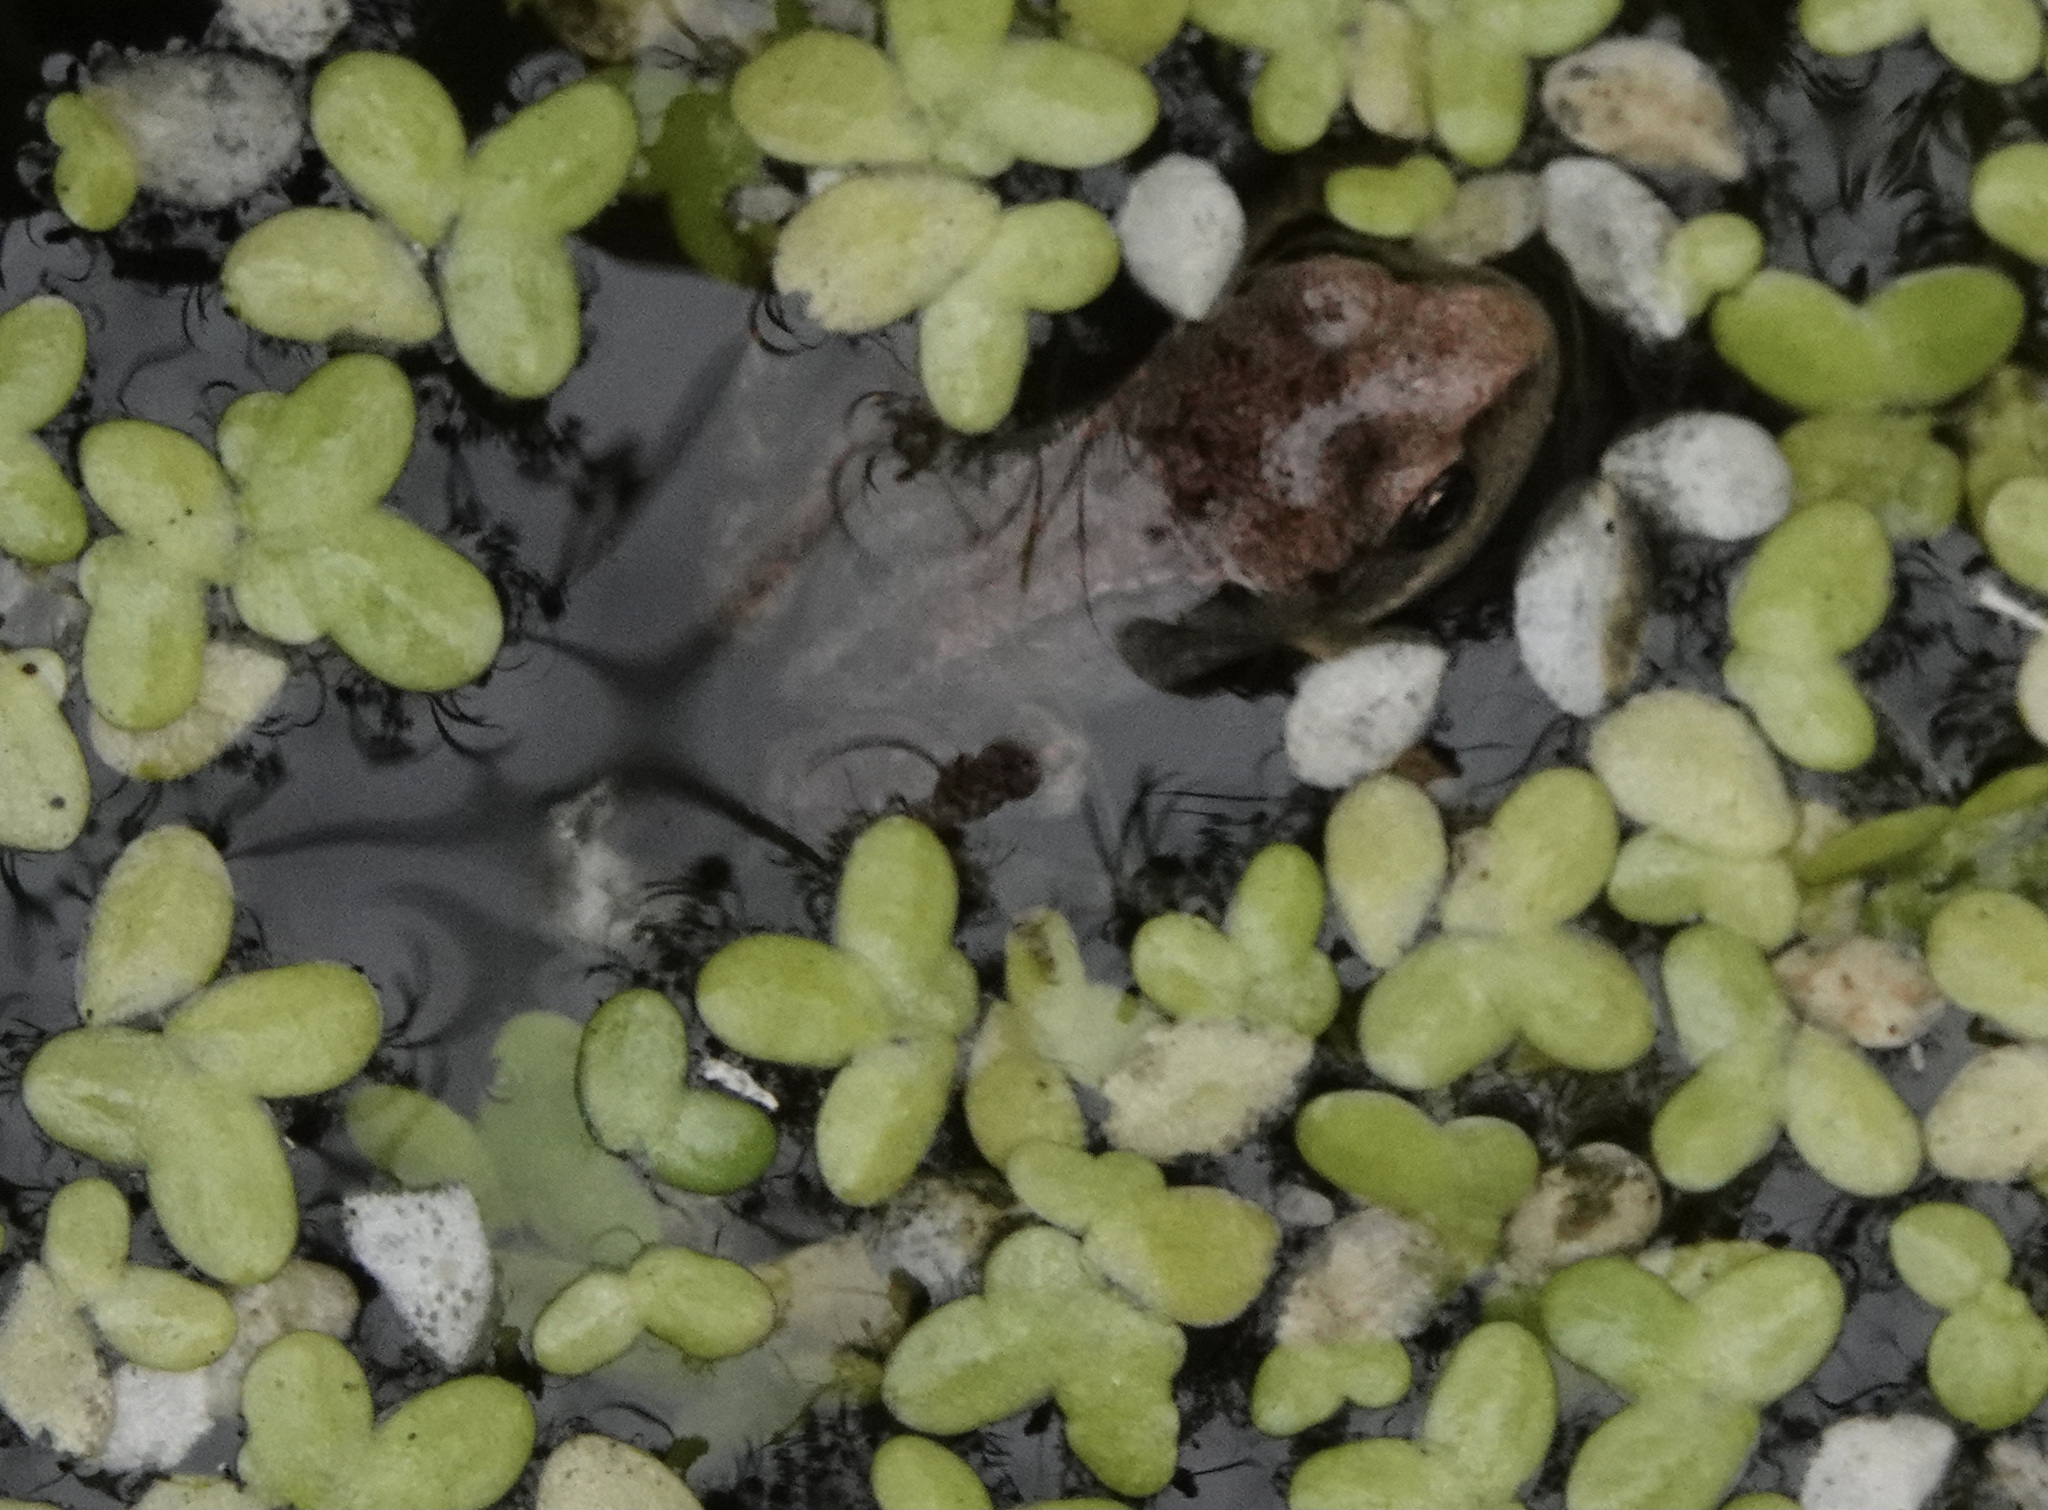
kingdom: Animalia
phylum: Chordata
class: Amphibia
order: Anura
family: Ranidae
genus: Rana
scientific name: Rana temporaria
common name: Common frog
